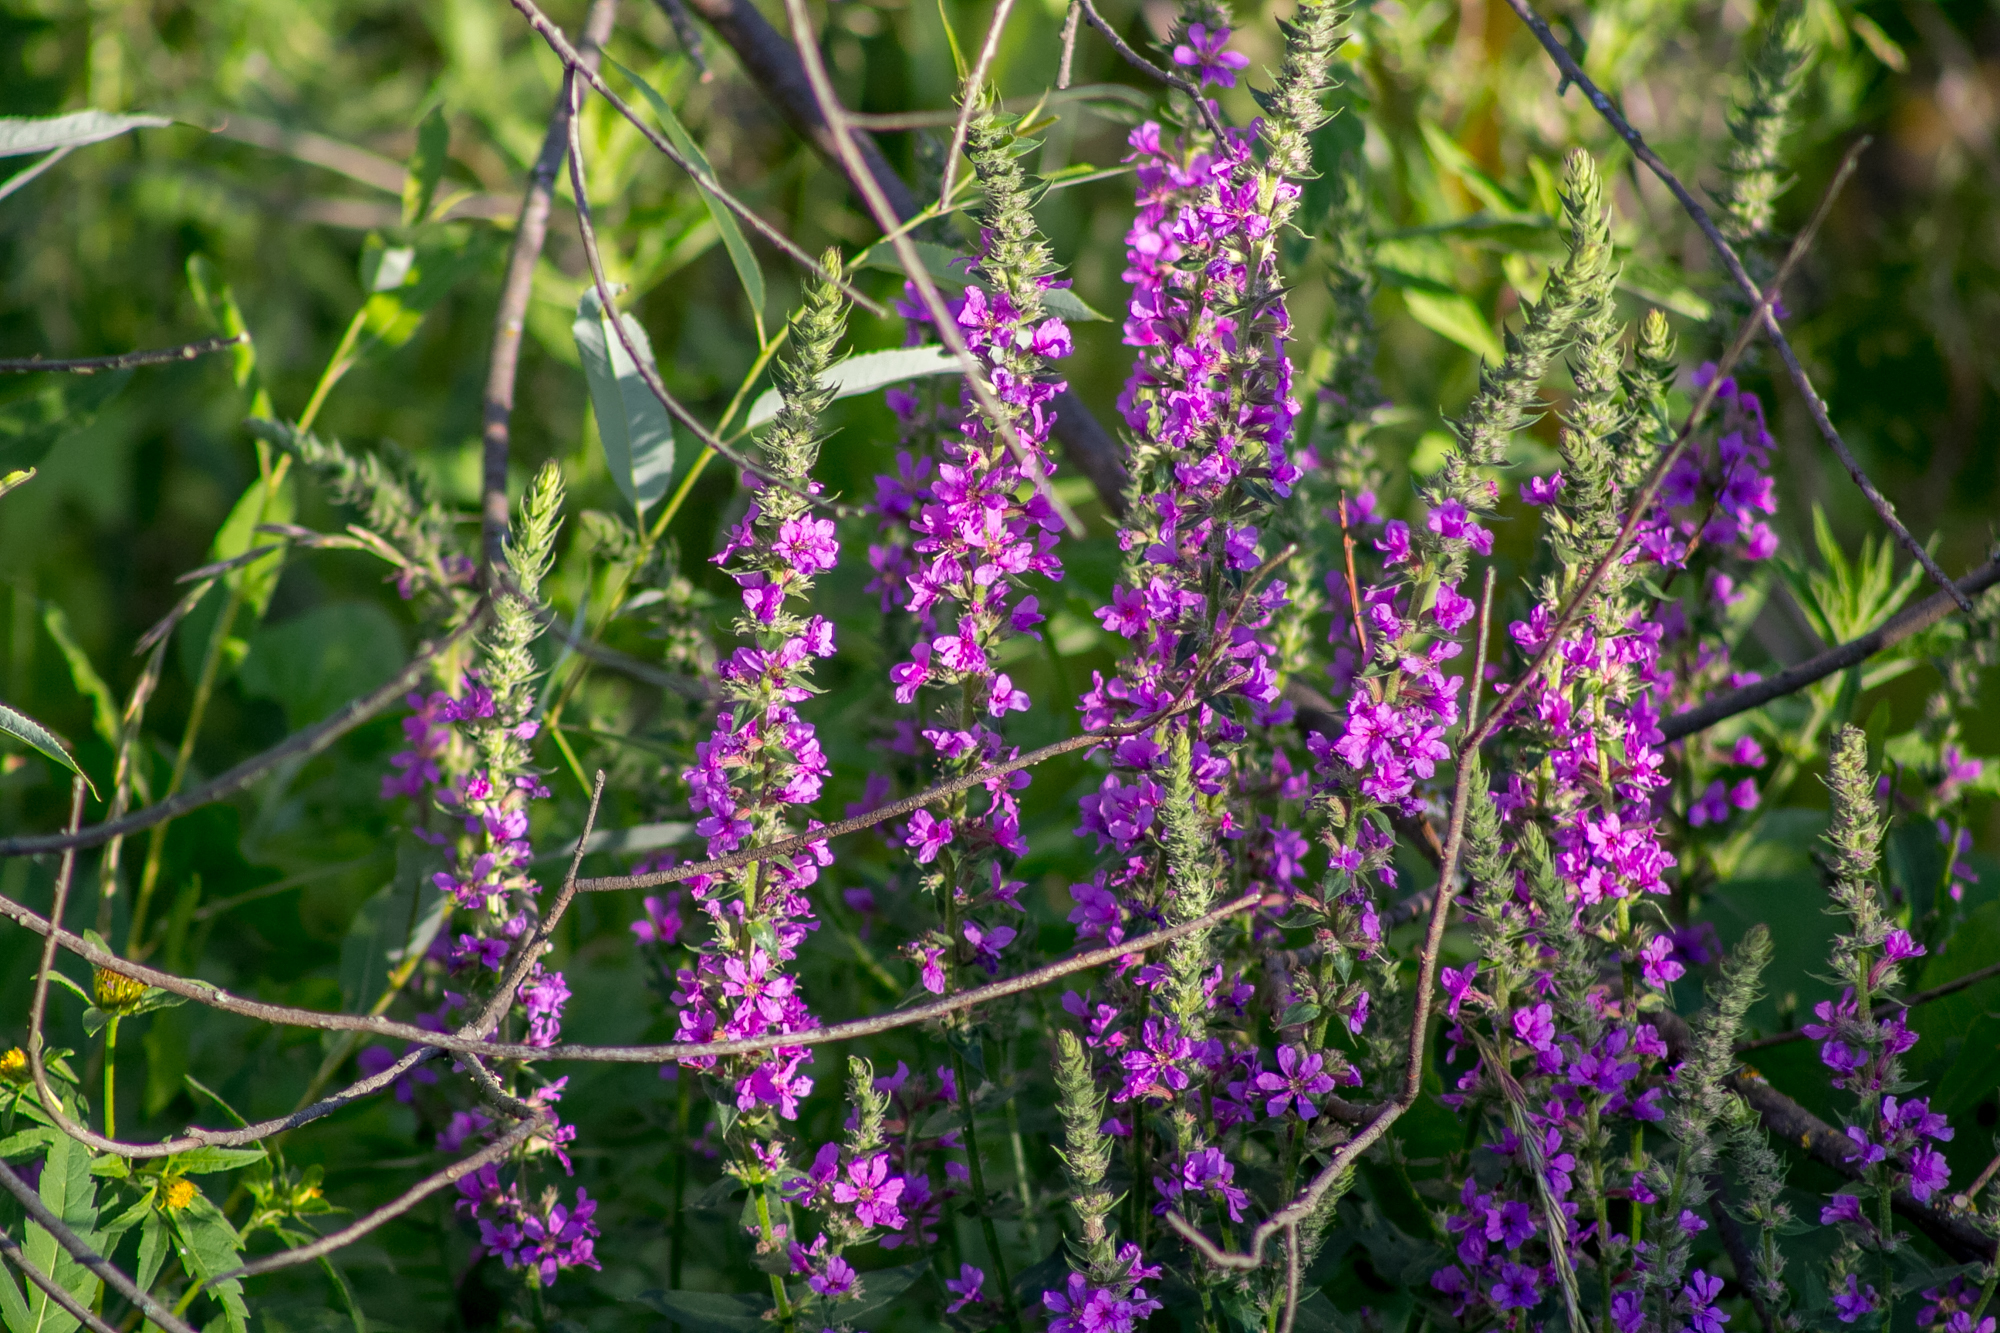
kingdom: Plantae
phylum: Tracheophyta
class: Magnoliopsida
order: Myrtales
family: Lythraceae
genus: Lythrum
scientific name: Lythrum salicaria
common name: Purple loosestrife
